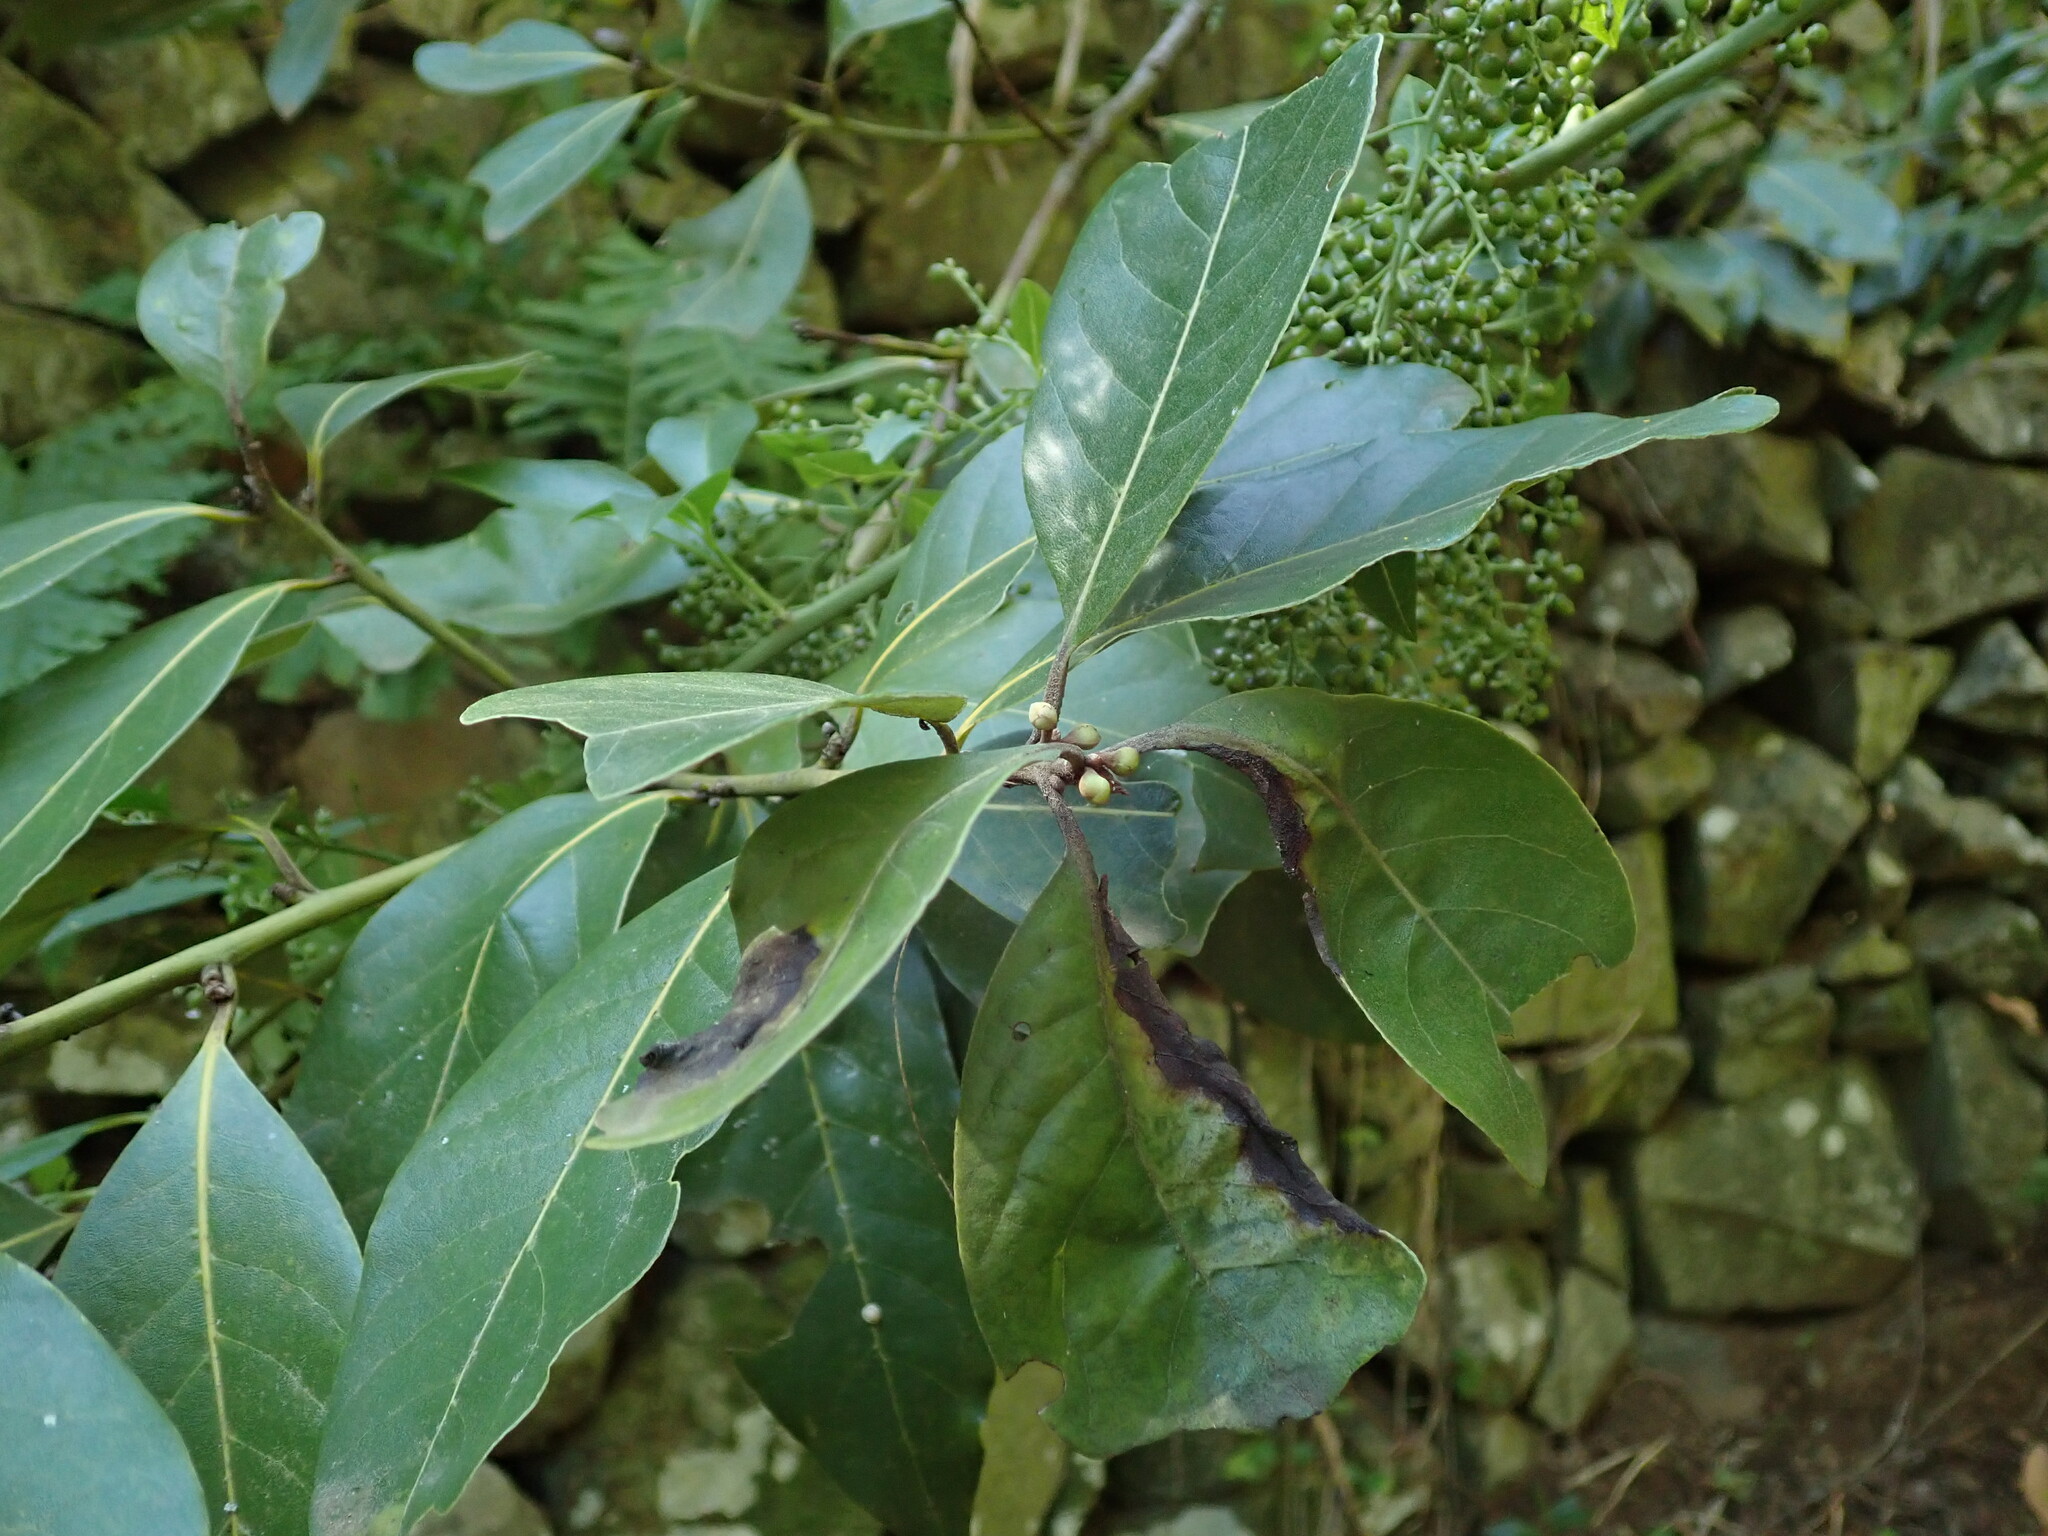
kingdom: Plantae
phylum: Tracheophyta
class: Magnoliopsida
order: Laurales
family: Lauraceae
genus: Laurus
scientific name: Laurus novocanariensis
